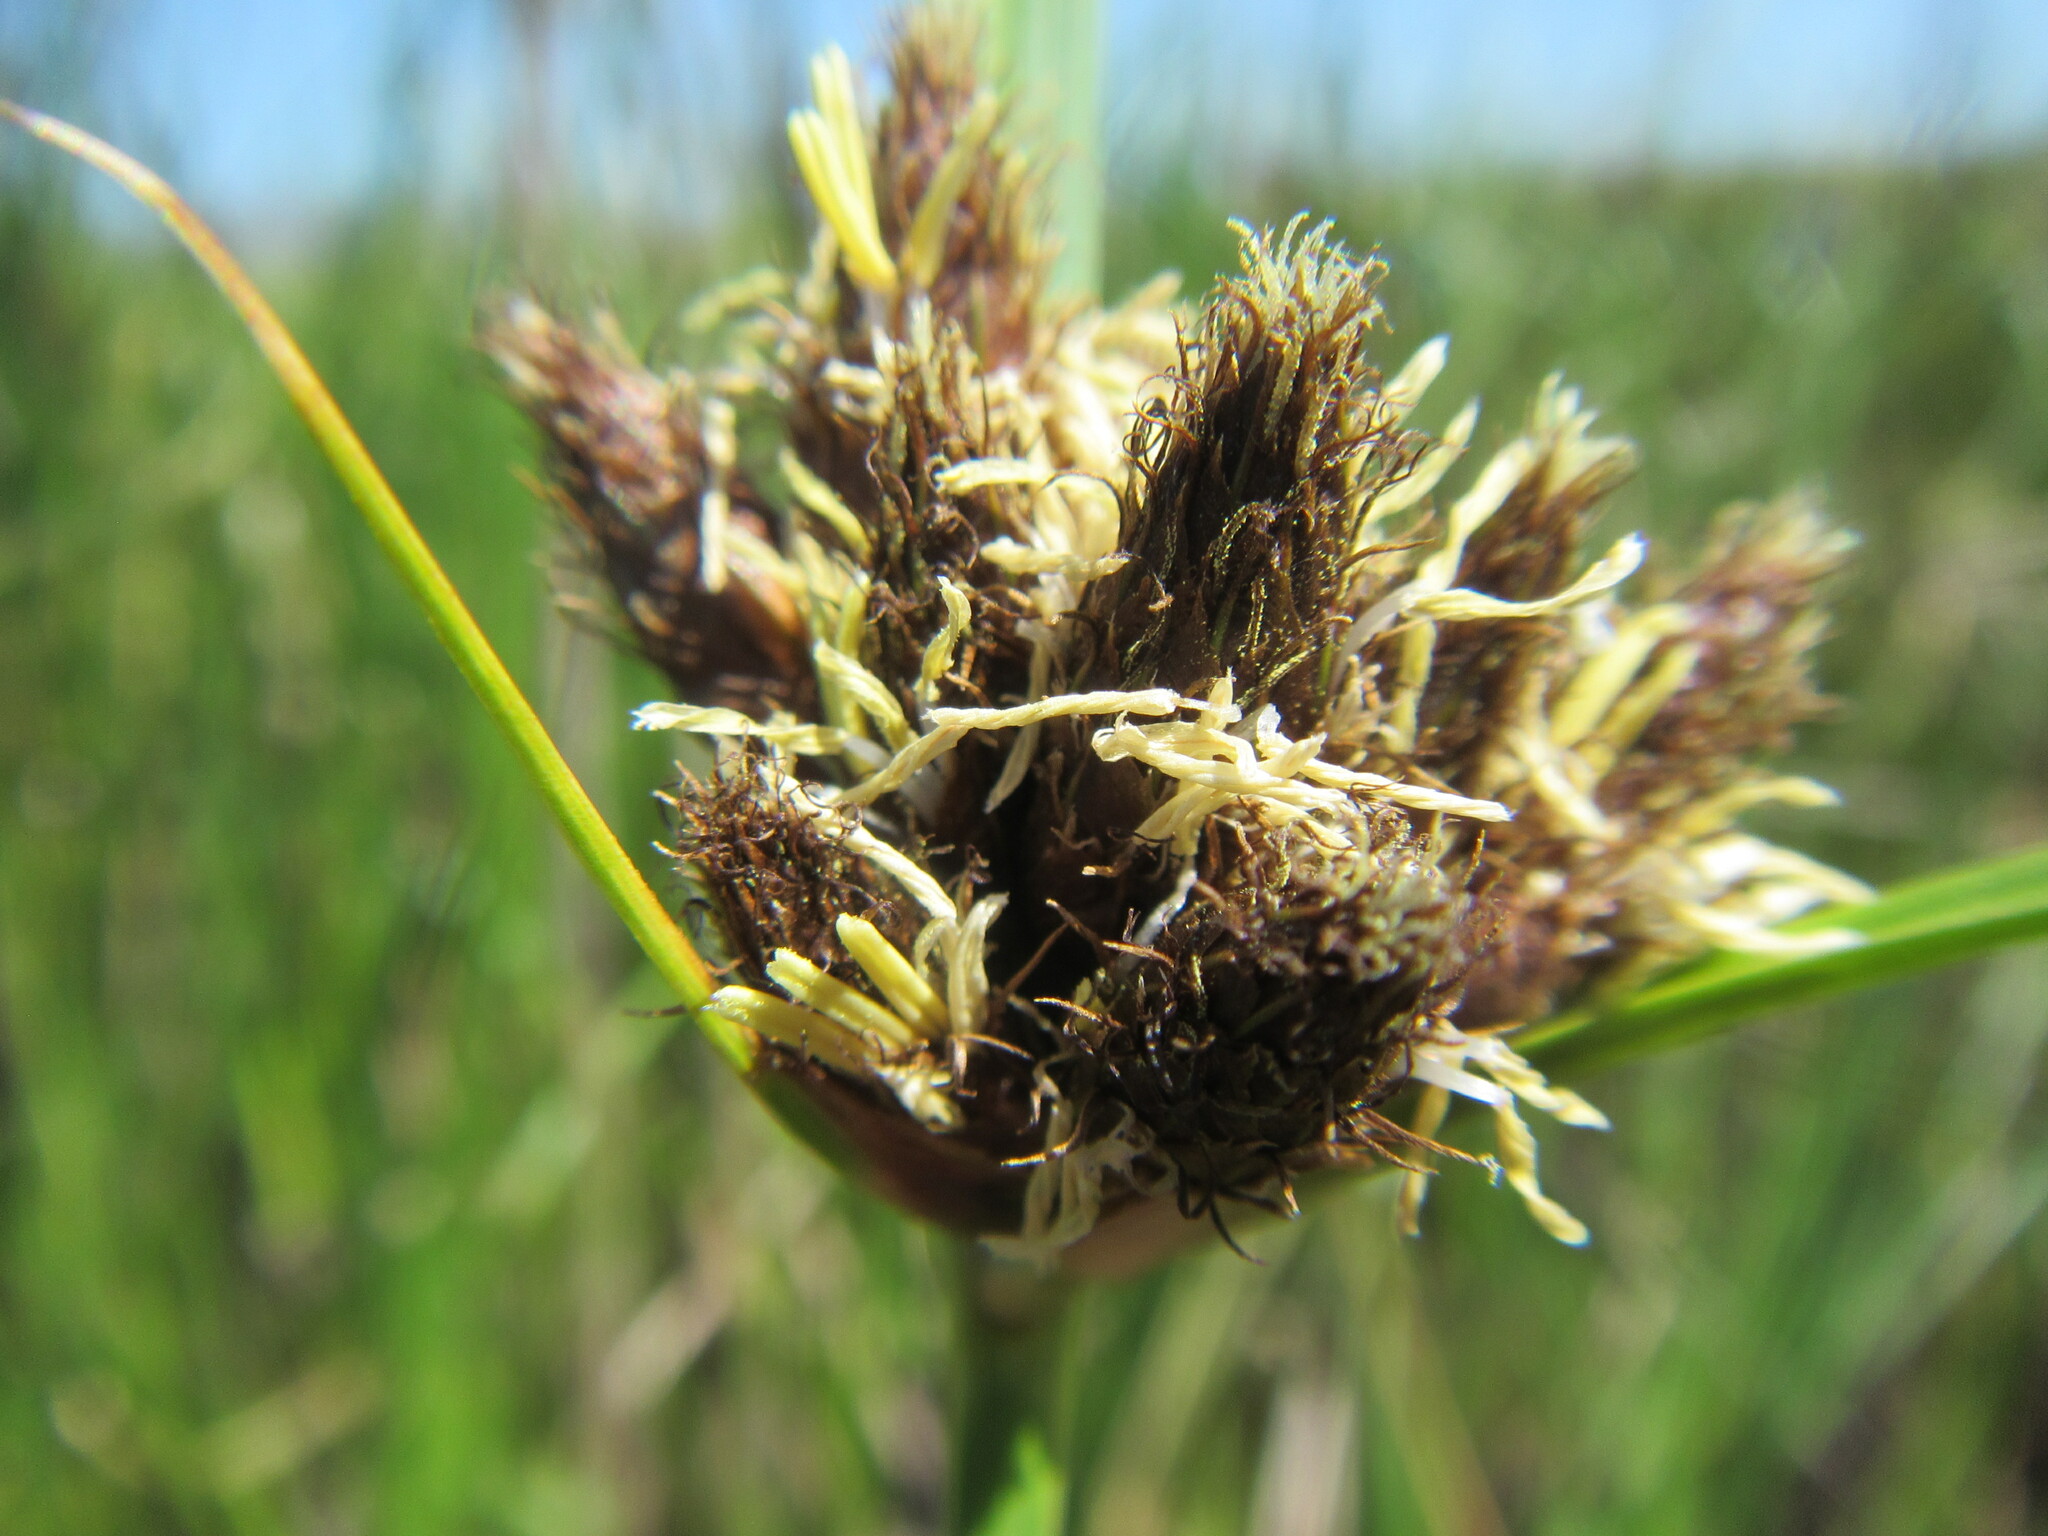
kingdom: Plantae
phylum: Tracheophyta
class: Liliopsida
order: Poales
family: Cyperaceae
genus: Bolboschoenus
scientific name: Bolboschoenus maritimus
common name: Sea club-rush
